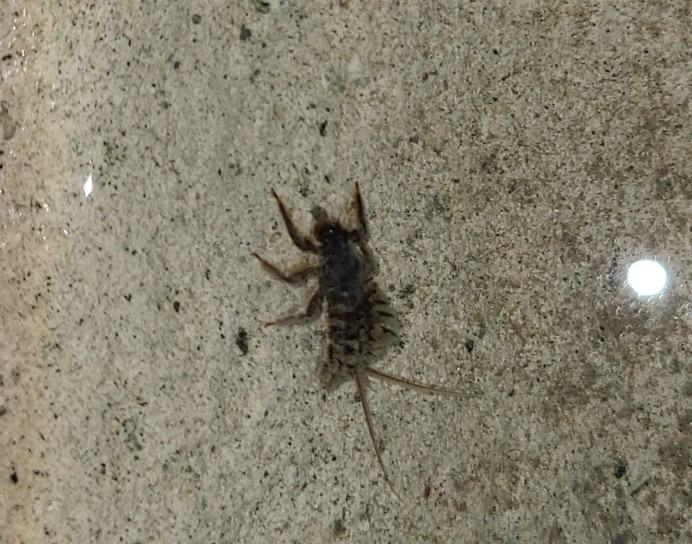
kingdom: Animalia
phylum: Arthropoda
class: Insecta
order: Ephemeroptera
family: Coloburiscidae
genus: Coloburiscus
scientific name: Coloburiscus humeralis
